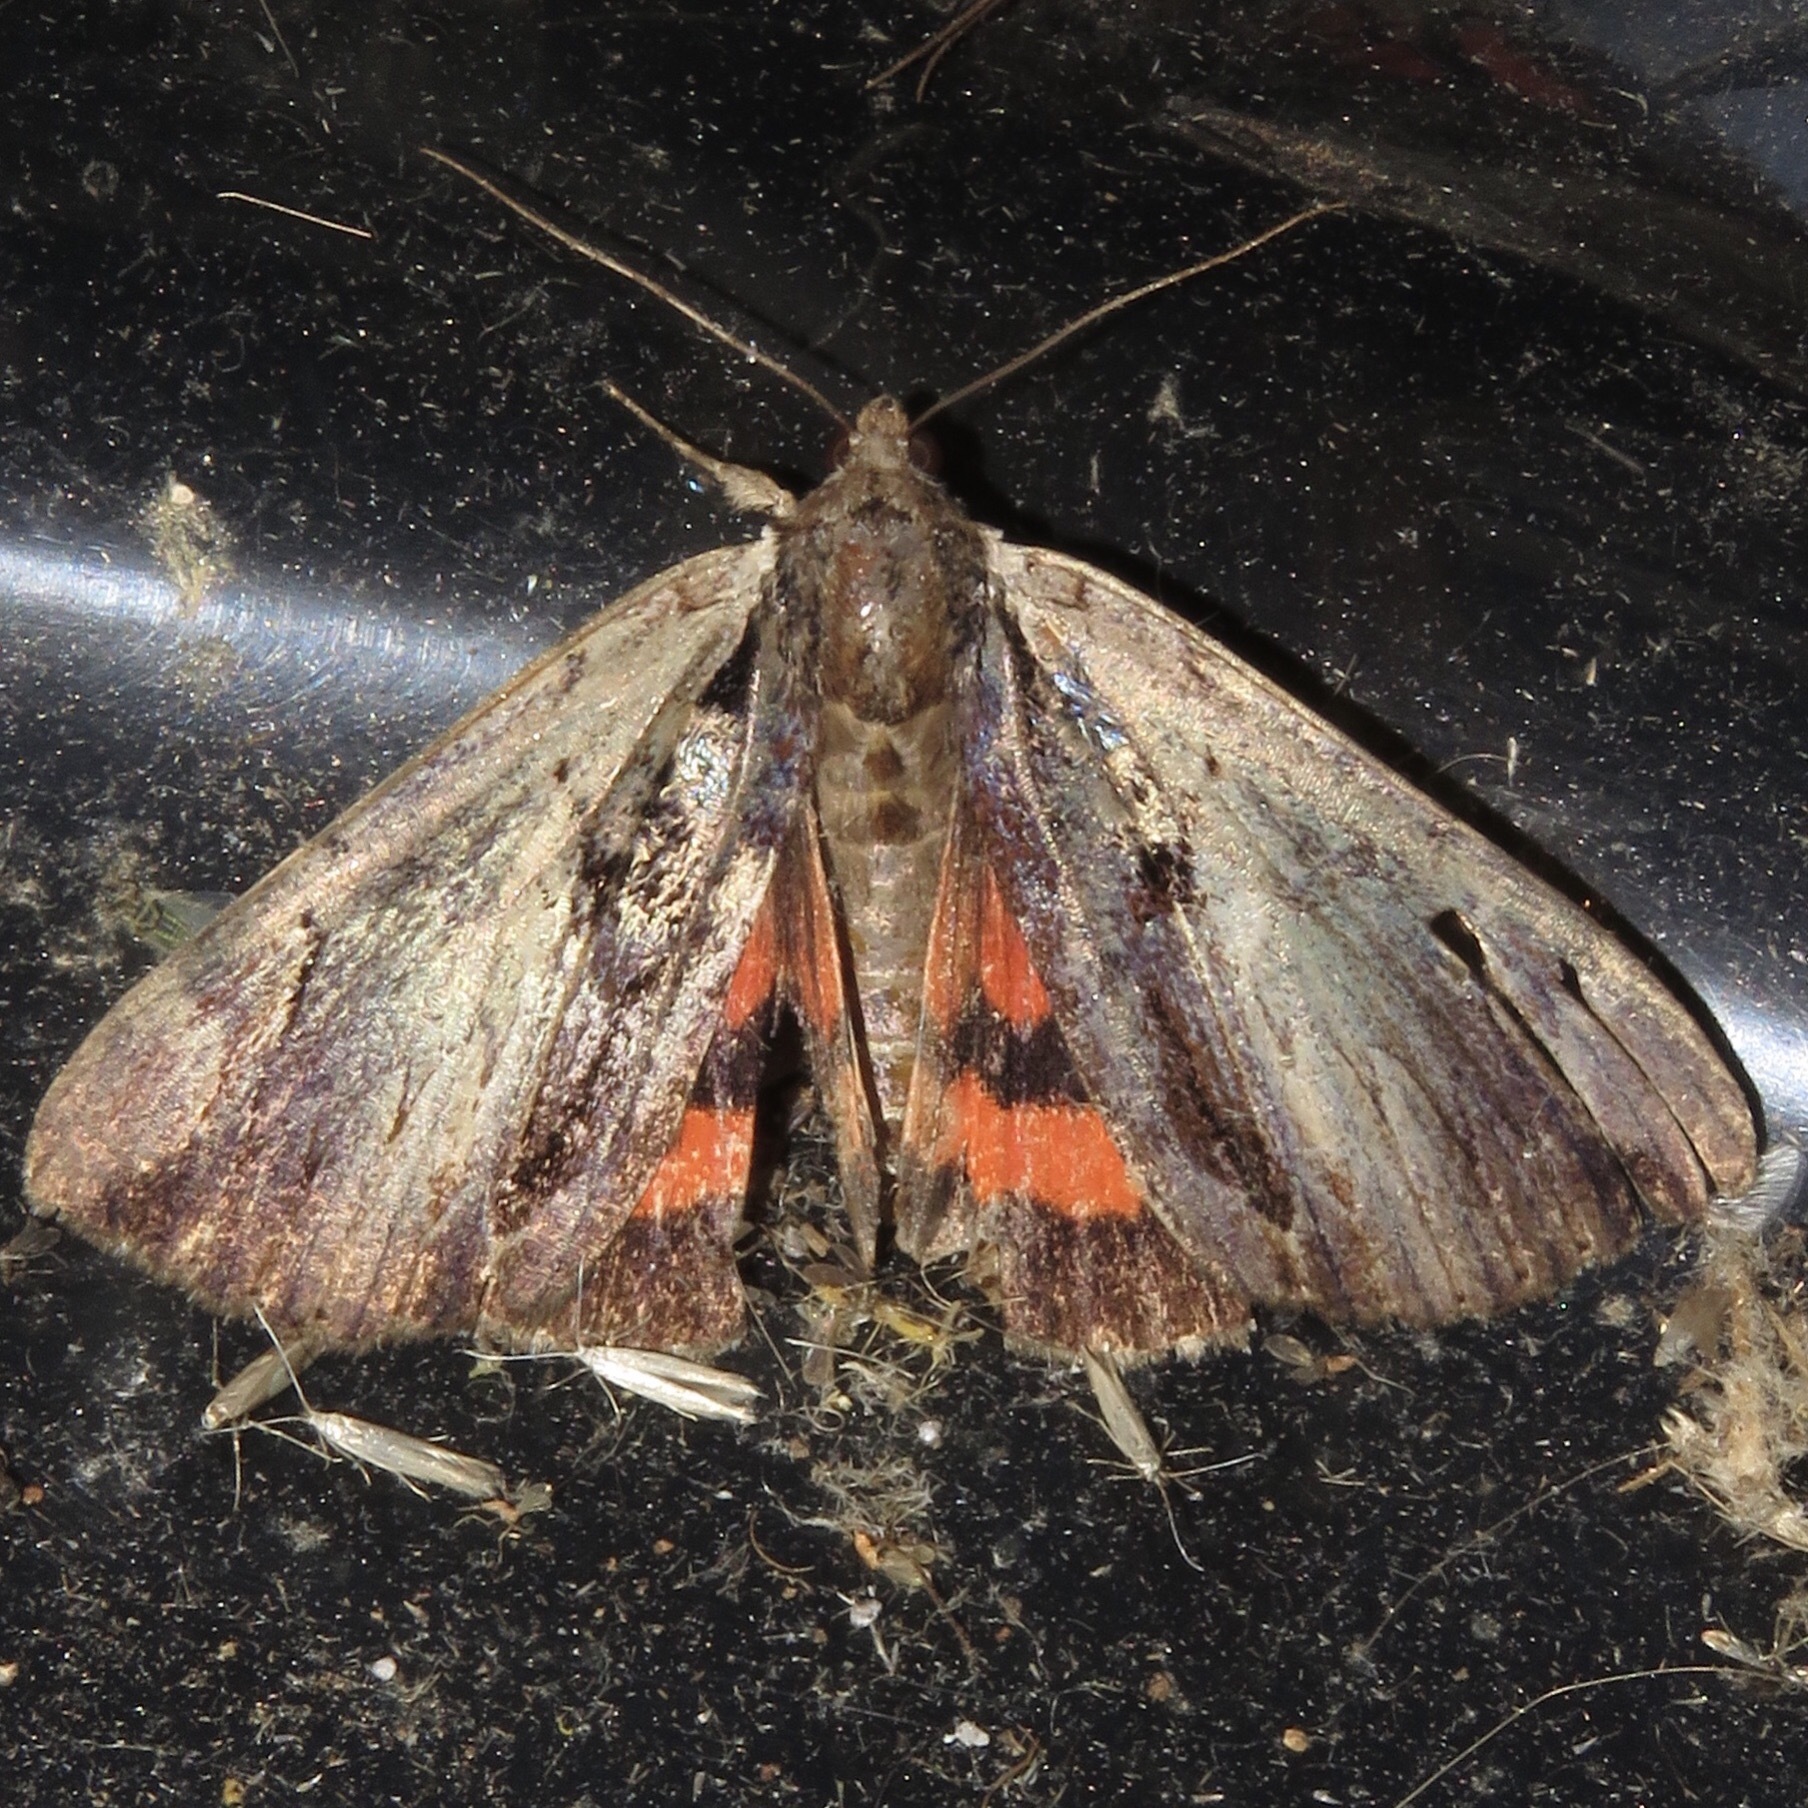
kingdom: Animalia
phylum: Arthropoda
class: Insecta
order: Lepidoptera
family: Erebidae
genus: Catocala
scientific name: Catocala ultronia
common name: Ultronia underwing
